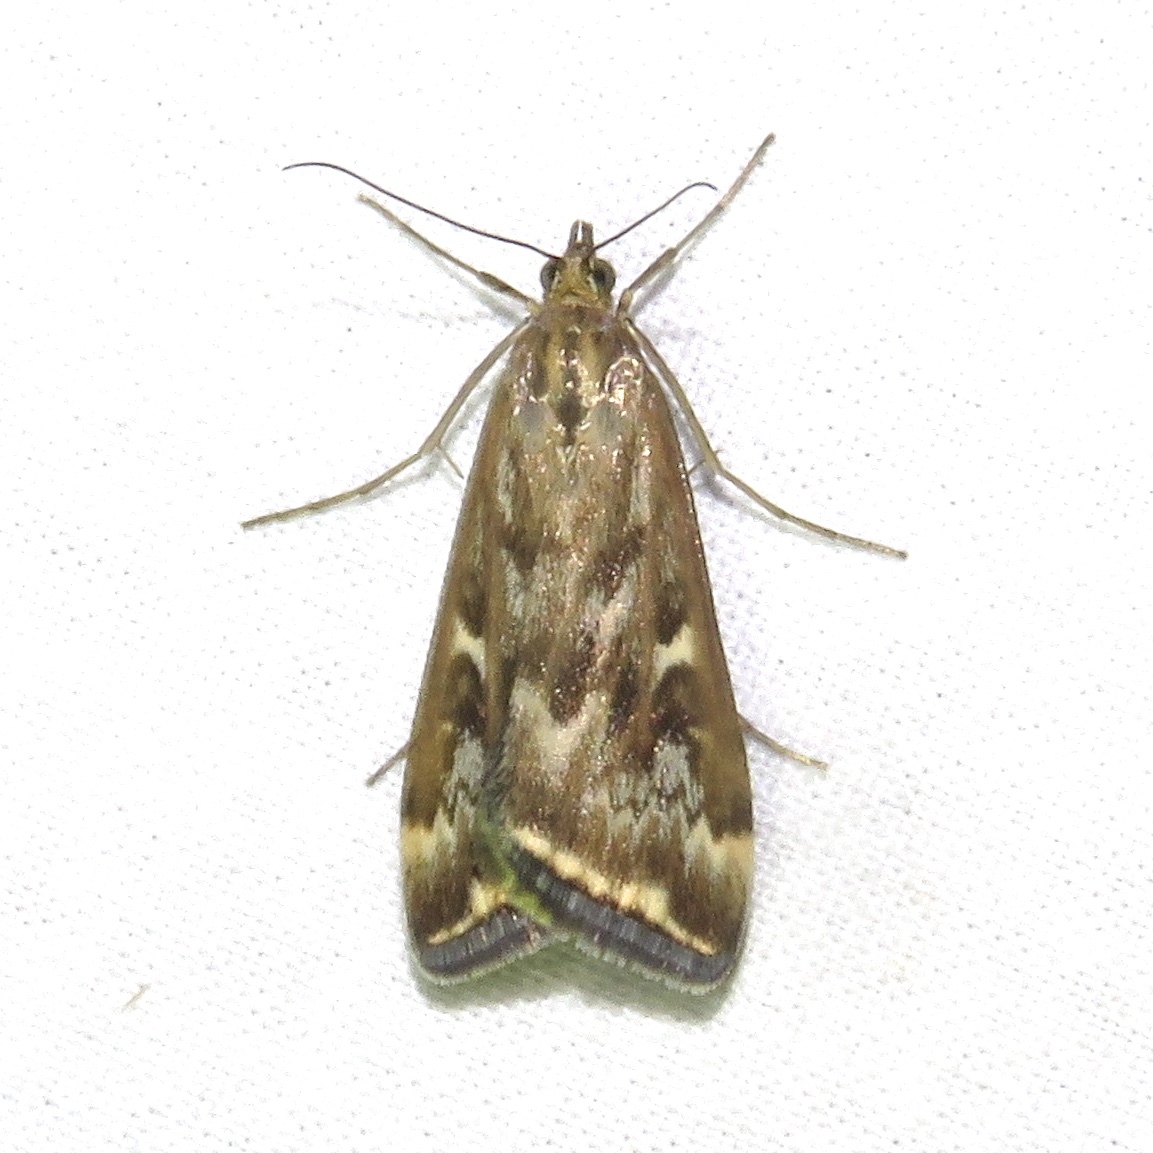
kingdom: Animalia
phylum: Arthropoda
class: Insecta
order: Lepidoptera
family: Crambidae
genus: Loxostege
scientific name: Loxostege
